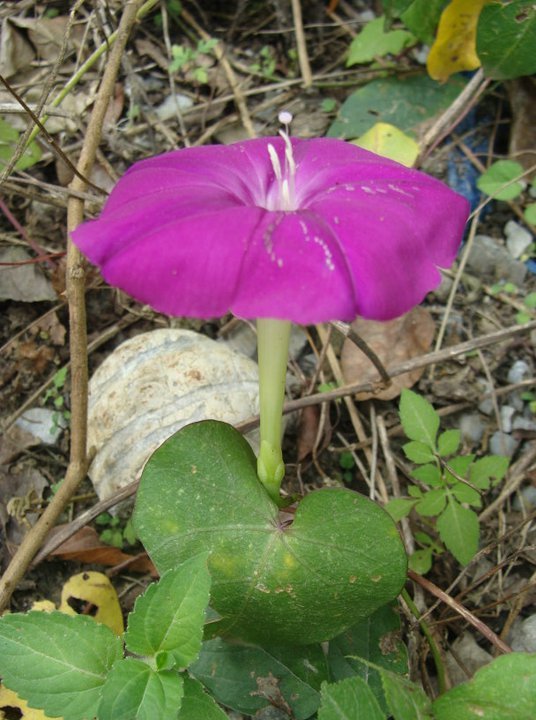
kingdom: Plantae
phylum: Tracheophyta
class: Magnoliopsida
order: Solanales
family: Convolvulaceae
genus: Ipomoea
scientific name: Ipomoea purga
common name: Jalap
